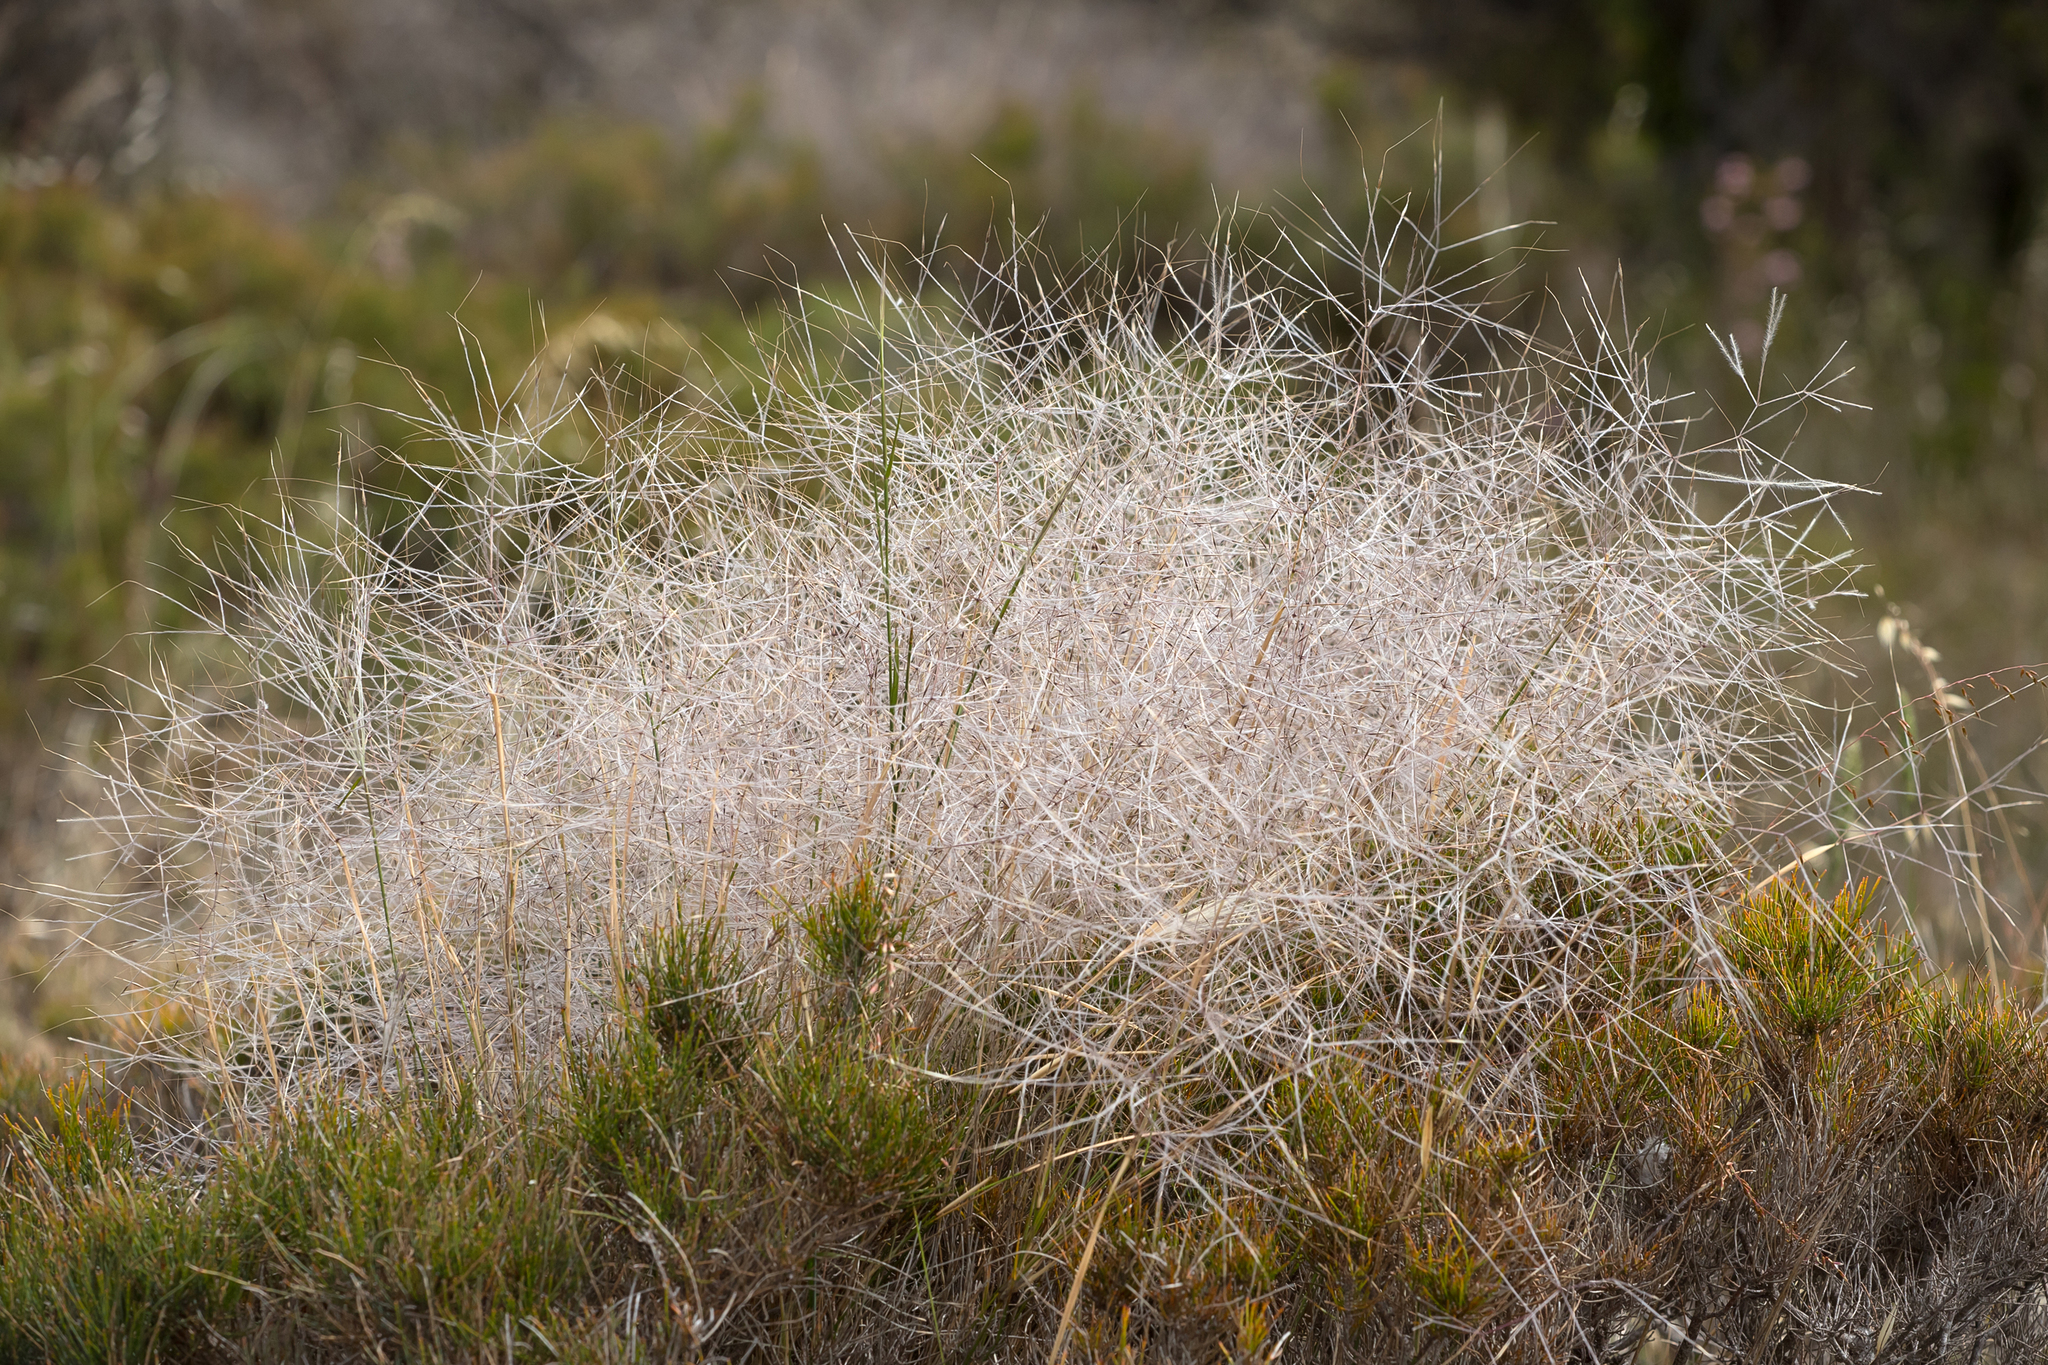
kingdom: Plantae
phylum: Tracheophyta
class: Liliopsida
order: Poales
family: Poaceae
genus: Austrostipa
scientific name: Austrostipa elegantissima
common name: Feather spear grass
